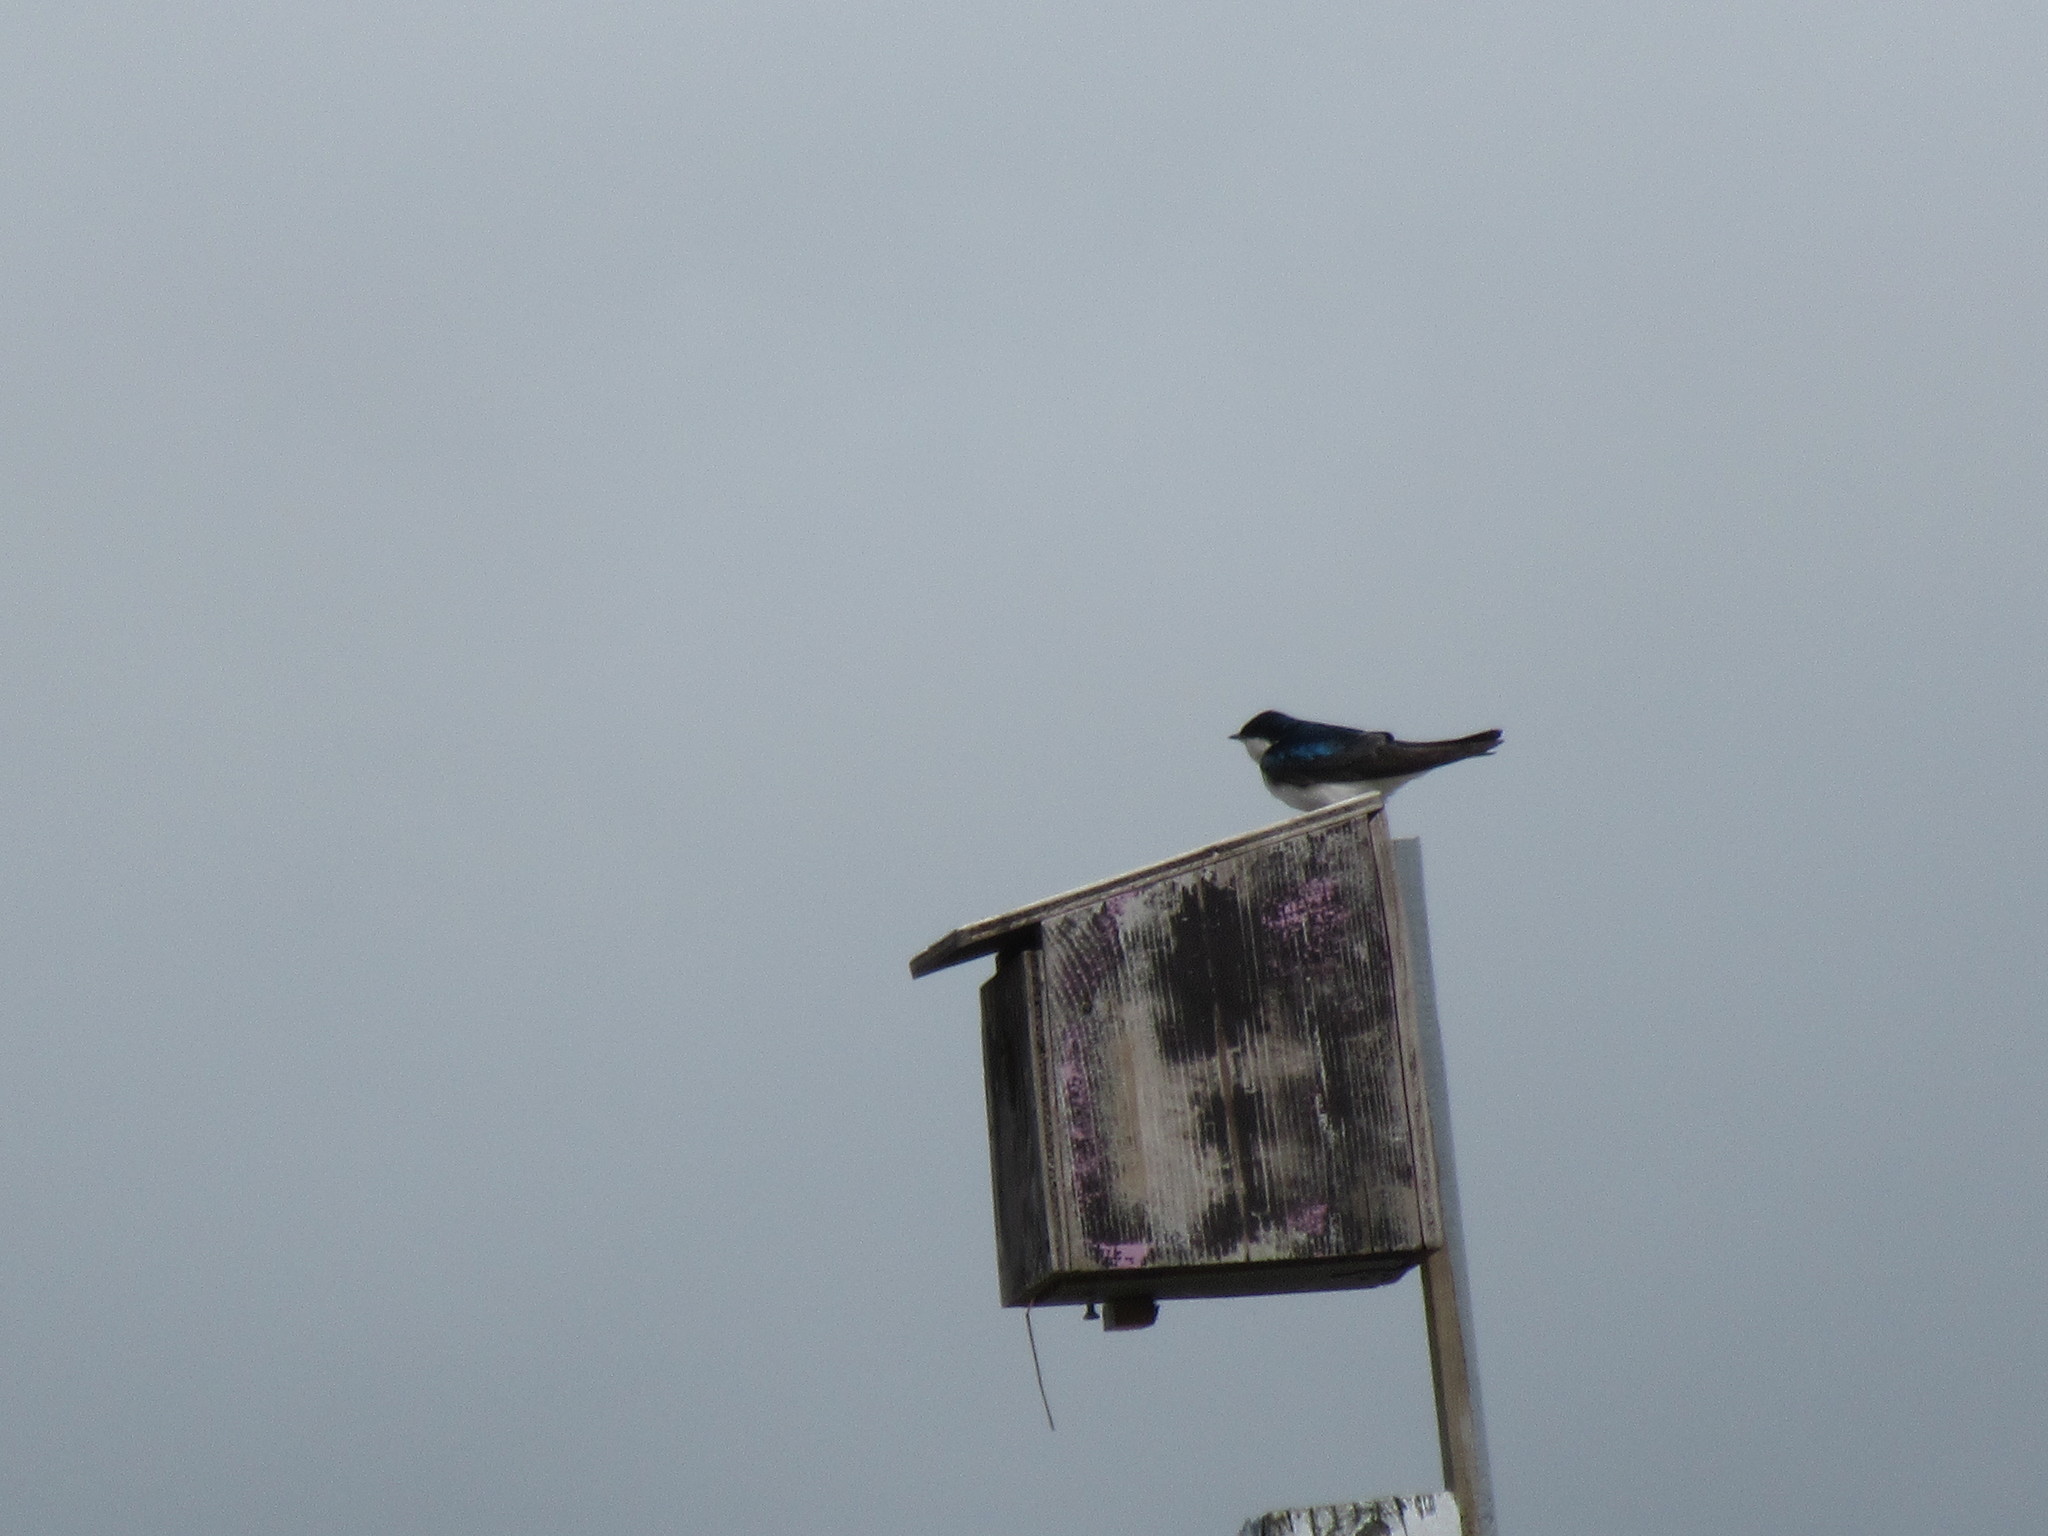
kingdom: Animalia
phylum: Chordata
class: Aves
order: Passeriformes
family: Hirundinidae
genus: Tachycineta
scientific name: Tachycineta bicolor
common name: Tree swallow
